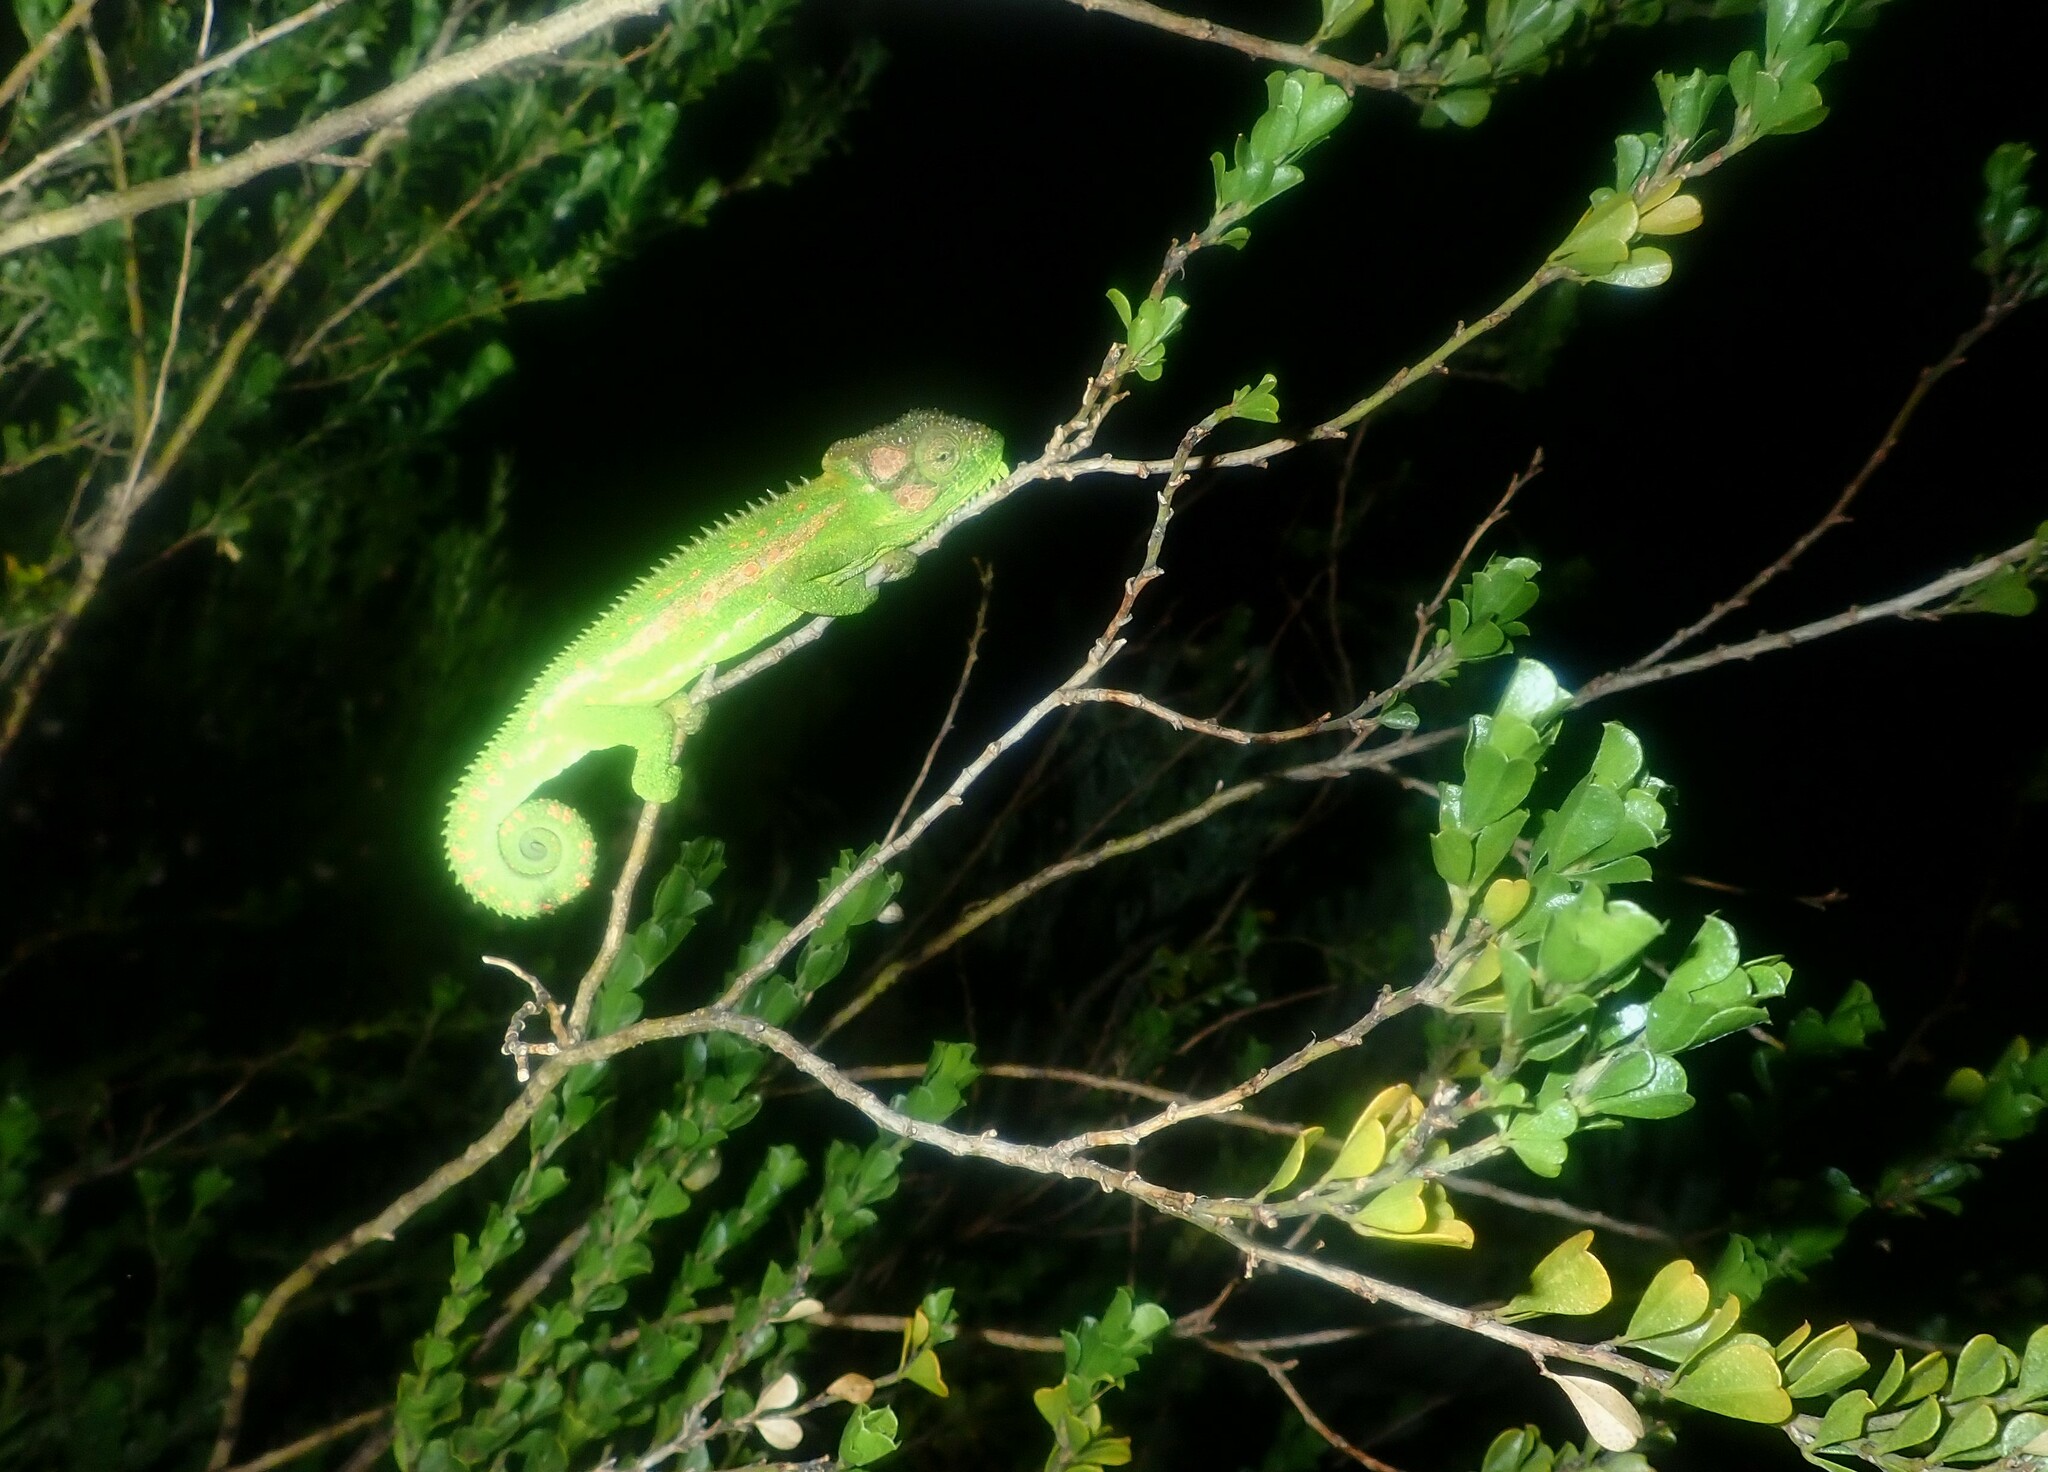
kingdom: Animalia
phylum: Chordata
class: Squamata
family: Chamaeleonidae
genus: Bradypodion
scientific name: Bradypodion pumilum
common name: Cape dwarf chameleon
